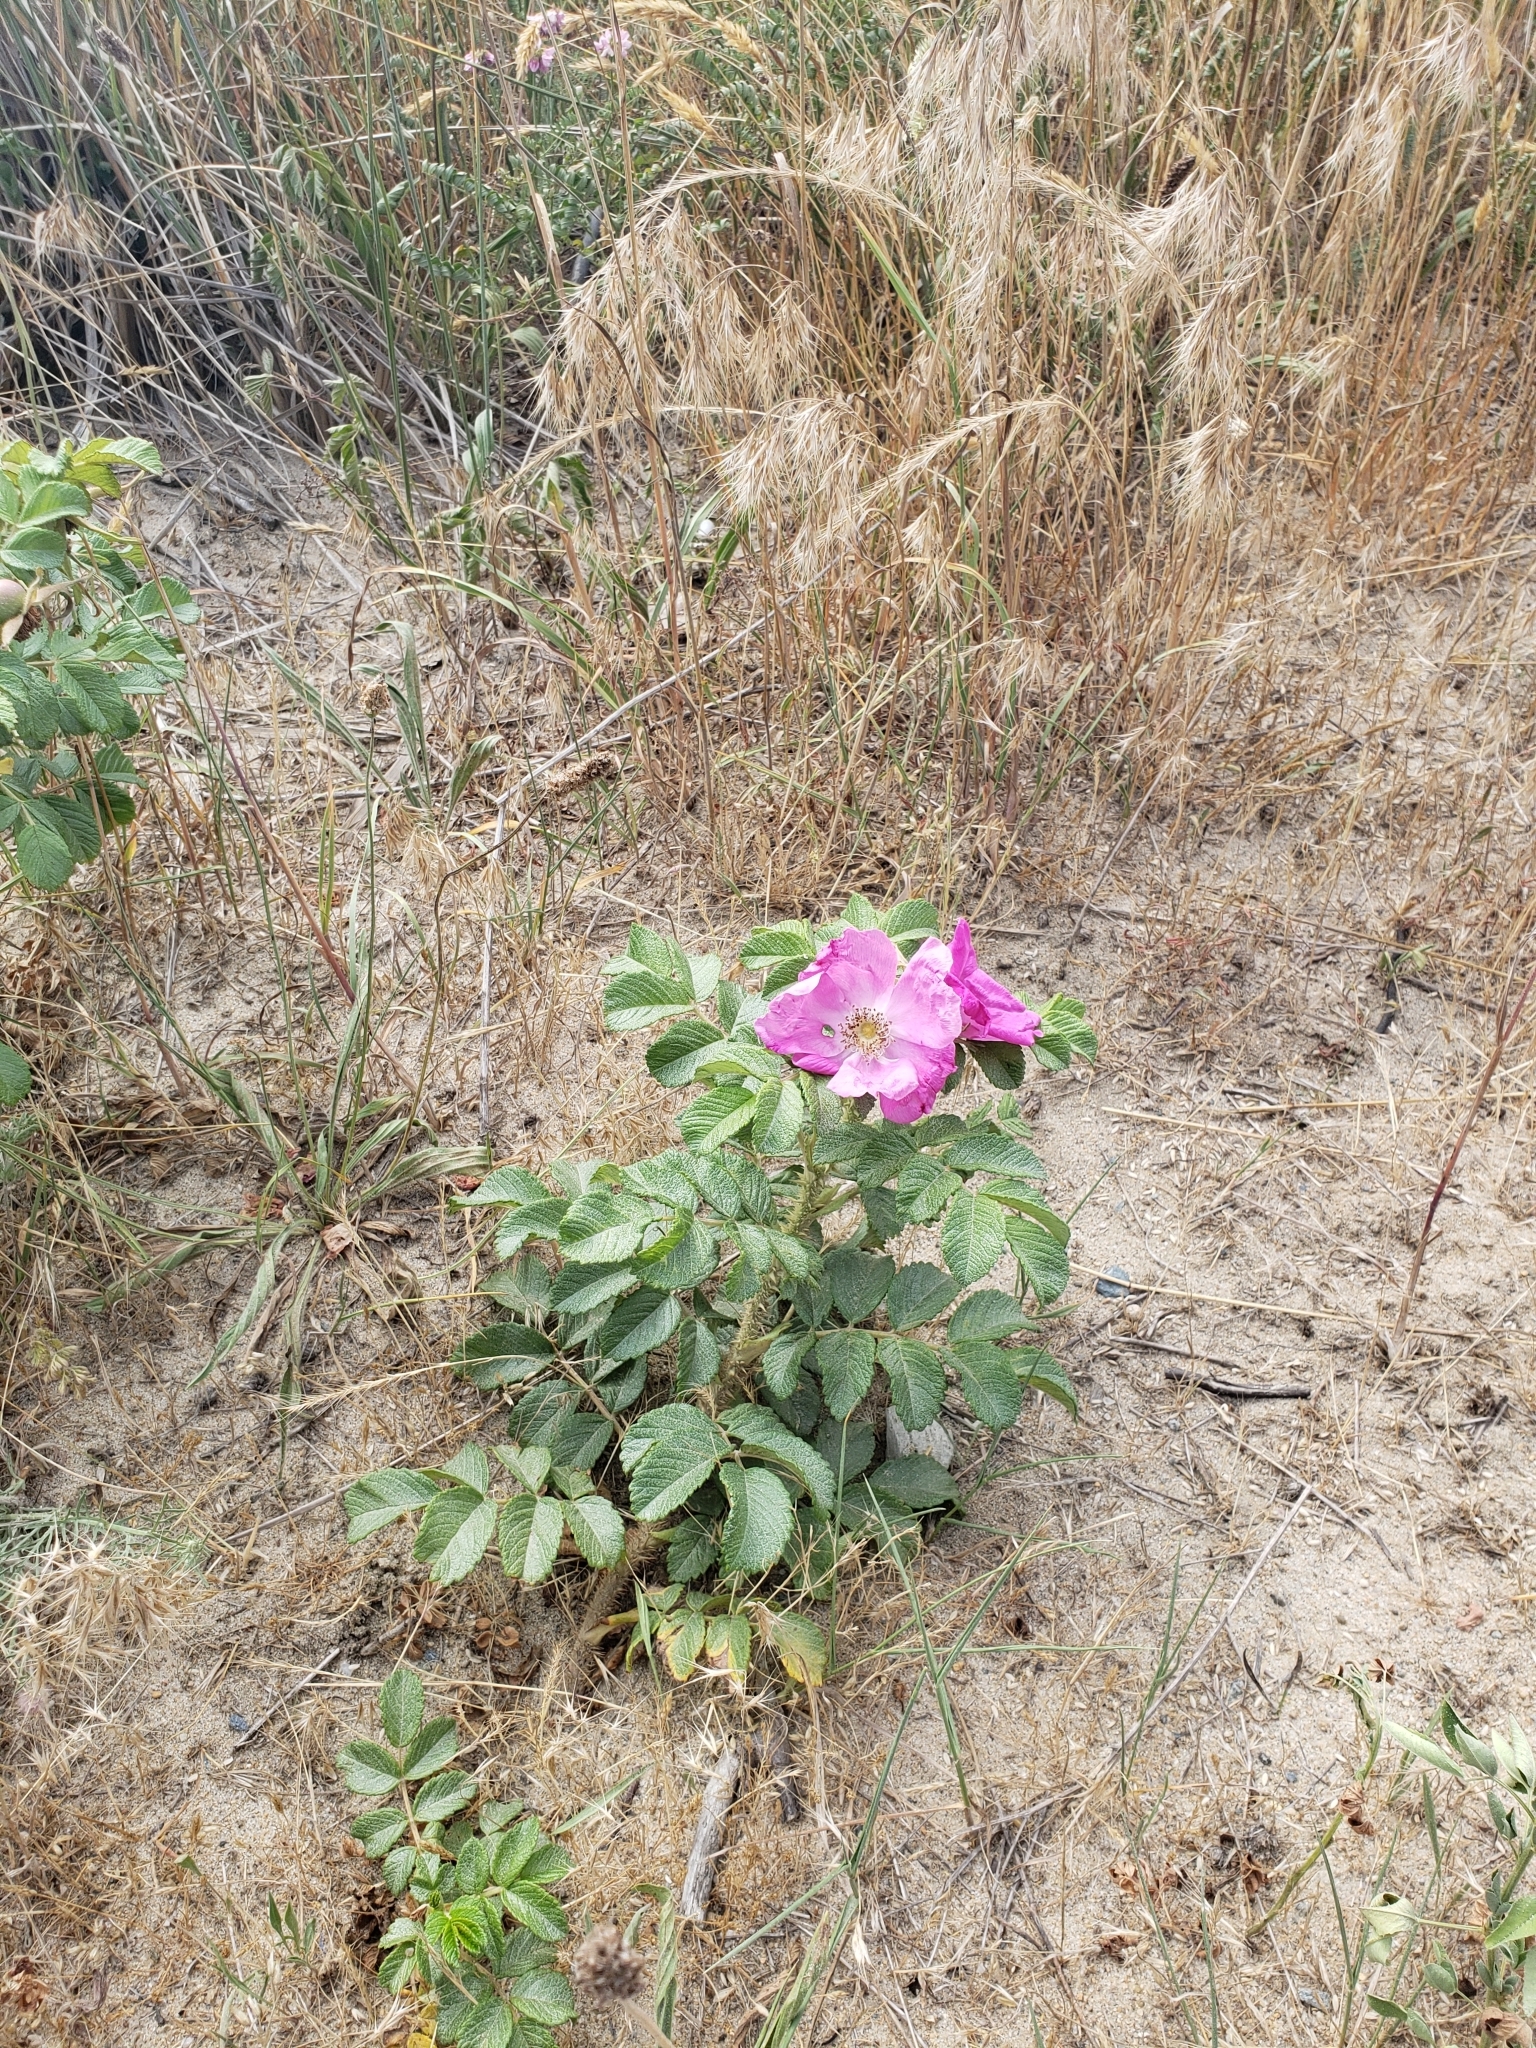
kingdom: Plantae
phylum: Tracheophyta
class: Magnoliopsida
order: Rosales
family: Rosaceae
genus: Rosa
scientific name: Rosa rugosa
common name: Japanese rose
